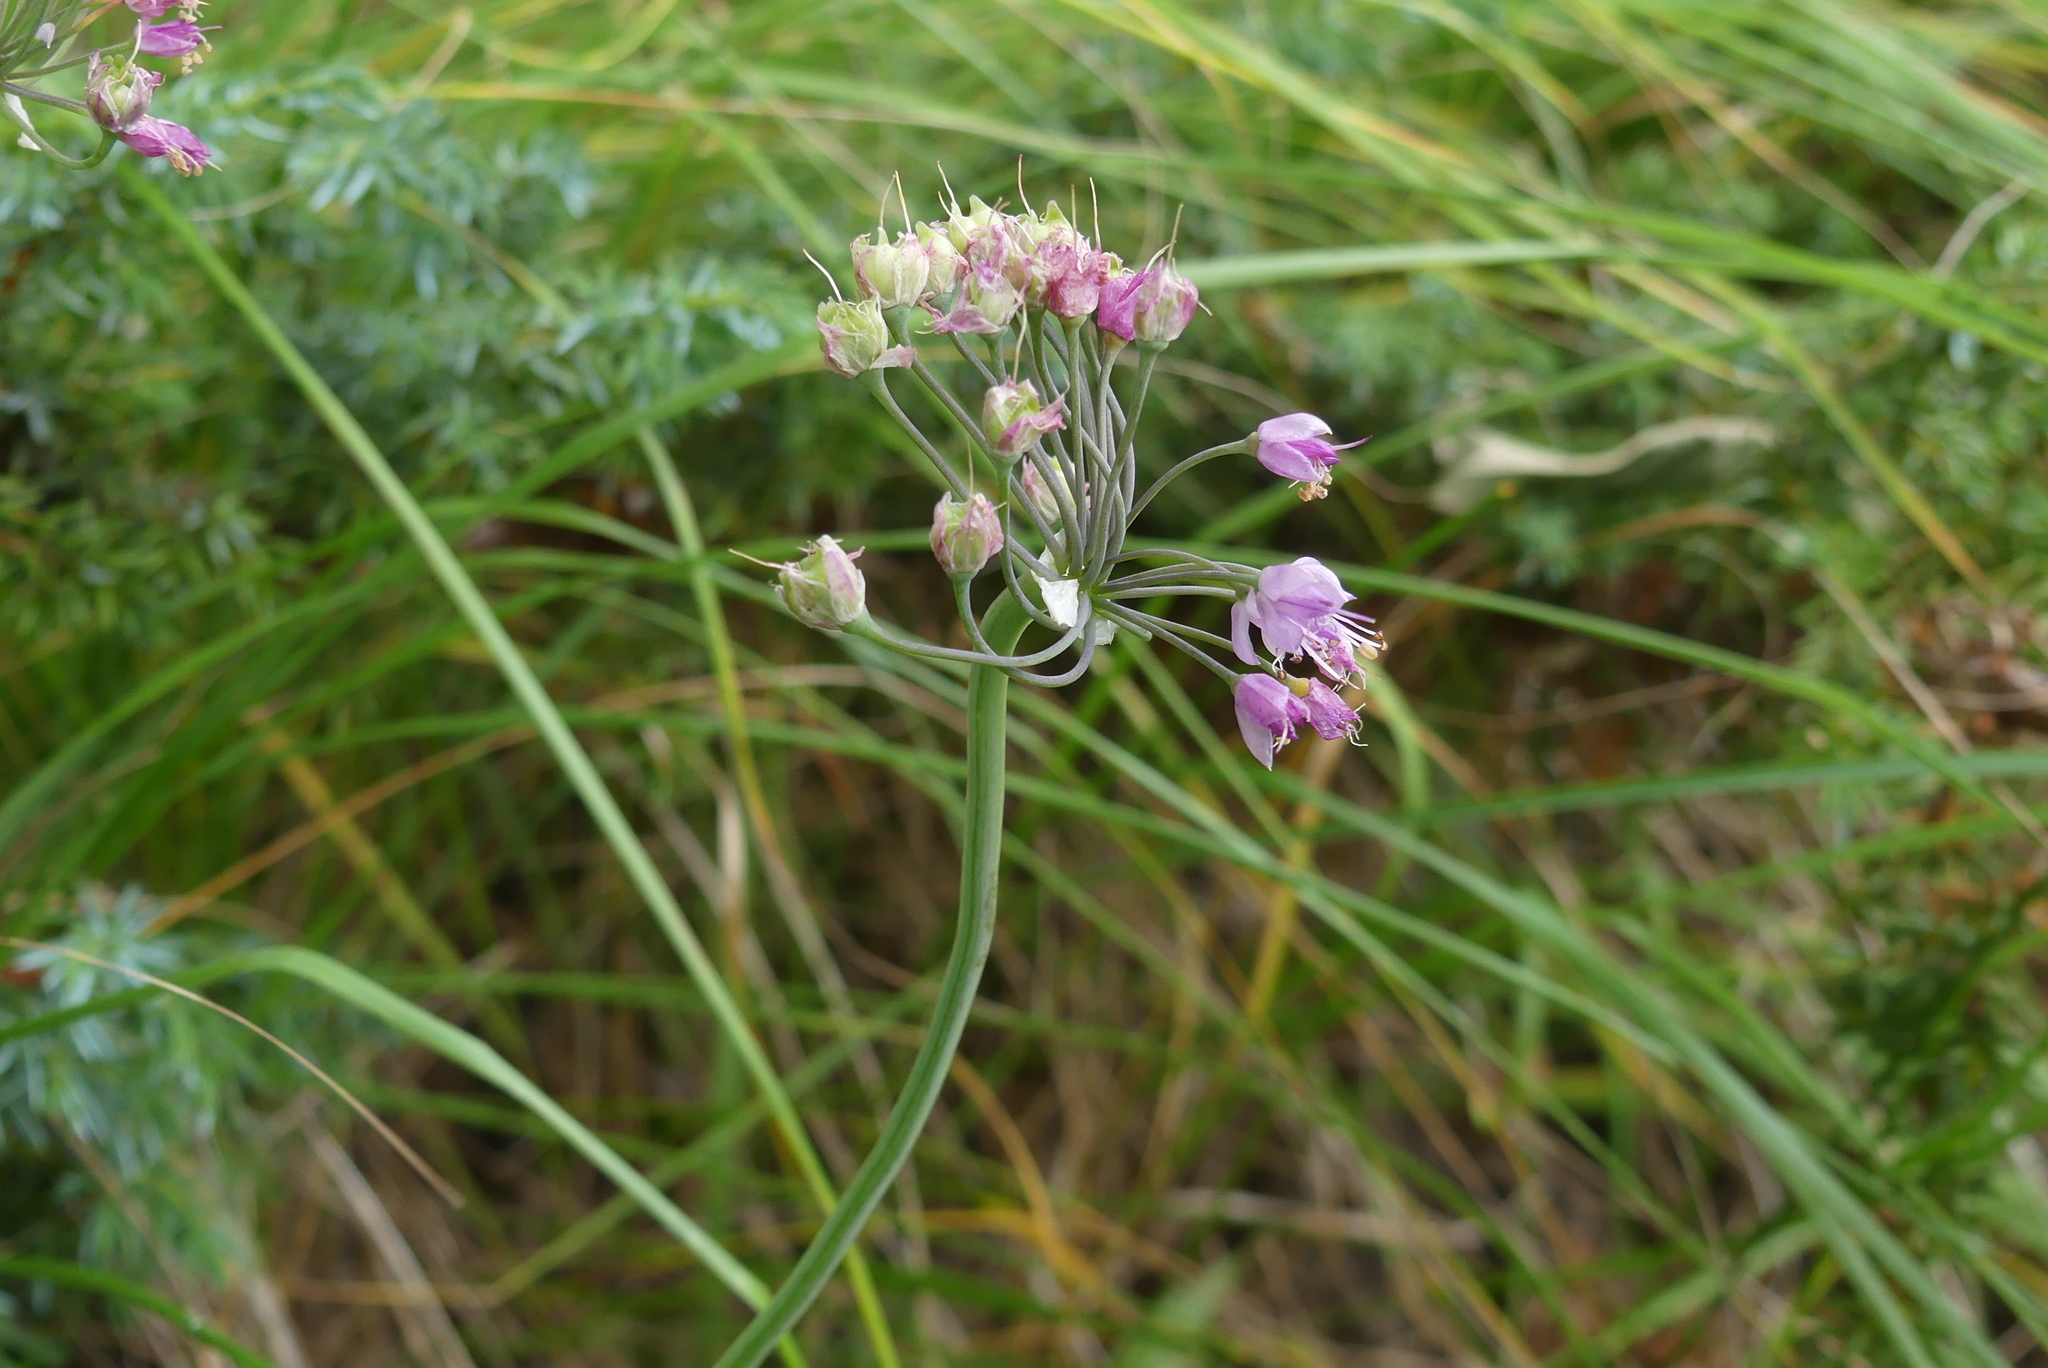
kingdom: Plantae
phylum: Tracheophyta
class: Liliopsida
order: Asparagales
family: Amaryllidaceae
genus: Allium
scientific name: Allium cernuum
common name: Nodding onion
